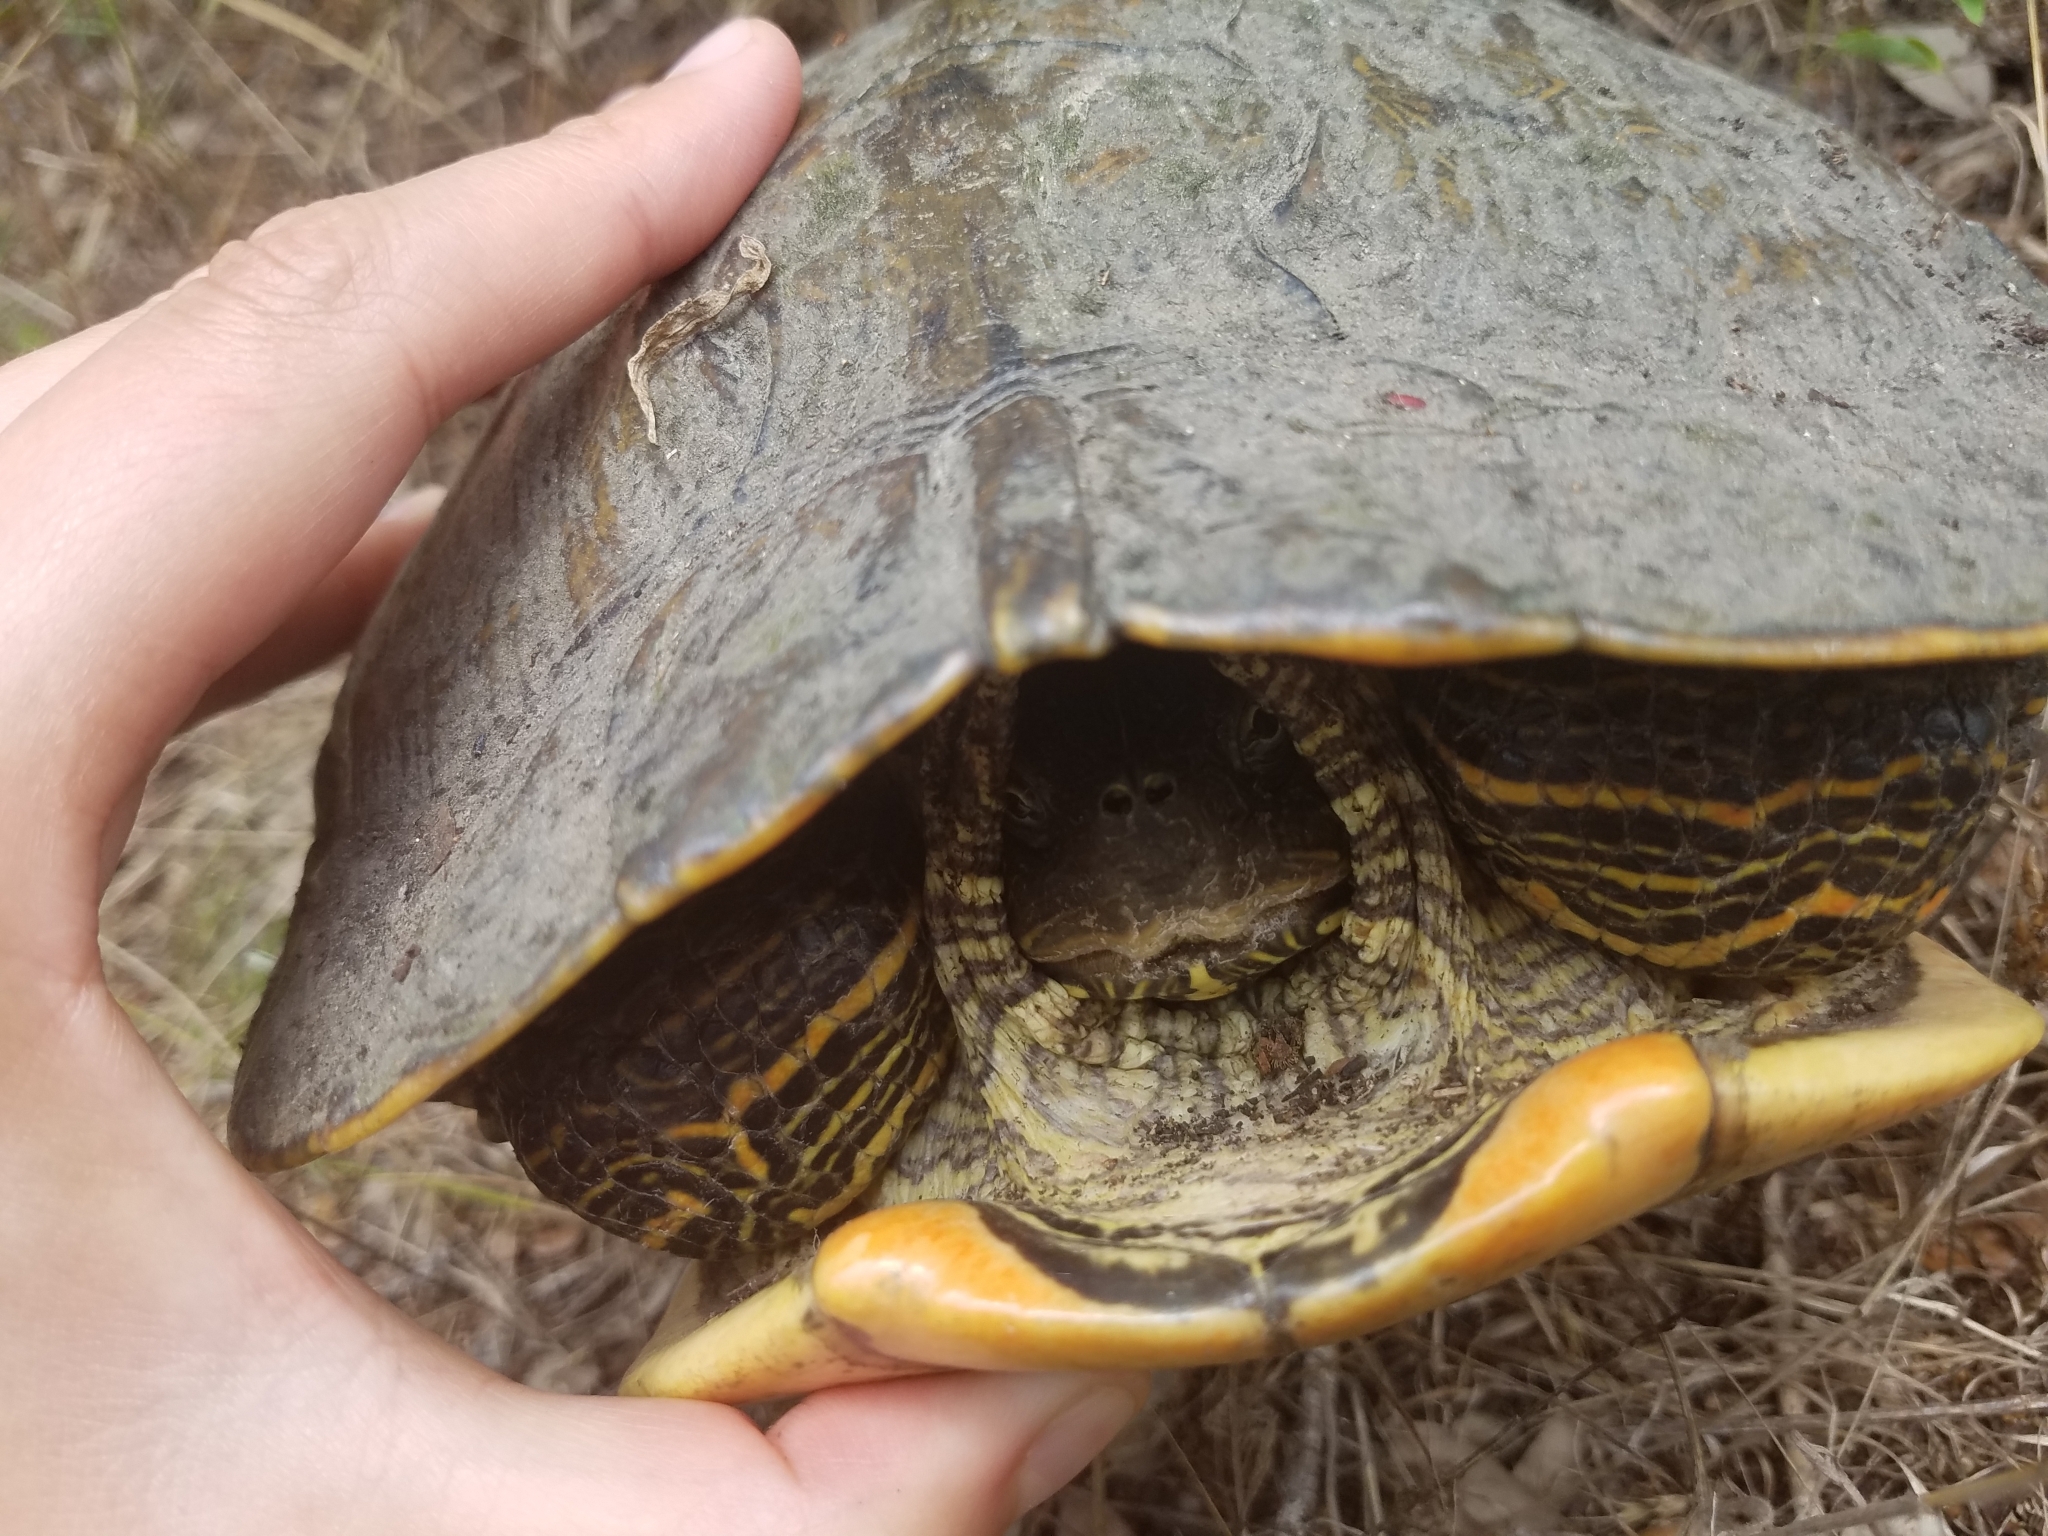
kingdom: Animalia
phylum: Chordata
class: Testudines
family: Emydidae
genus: Trachemys
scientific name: Trachemys scripta
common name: Slider
